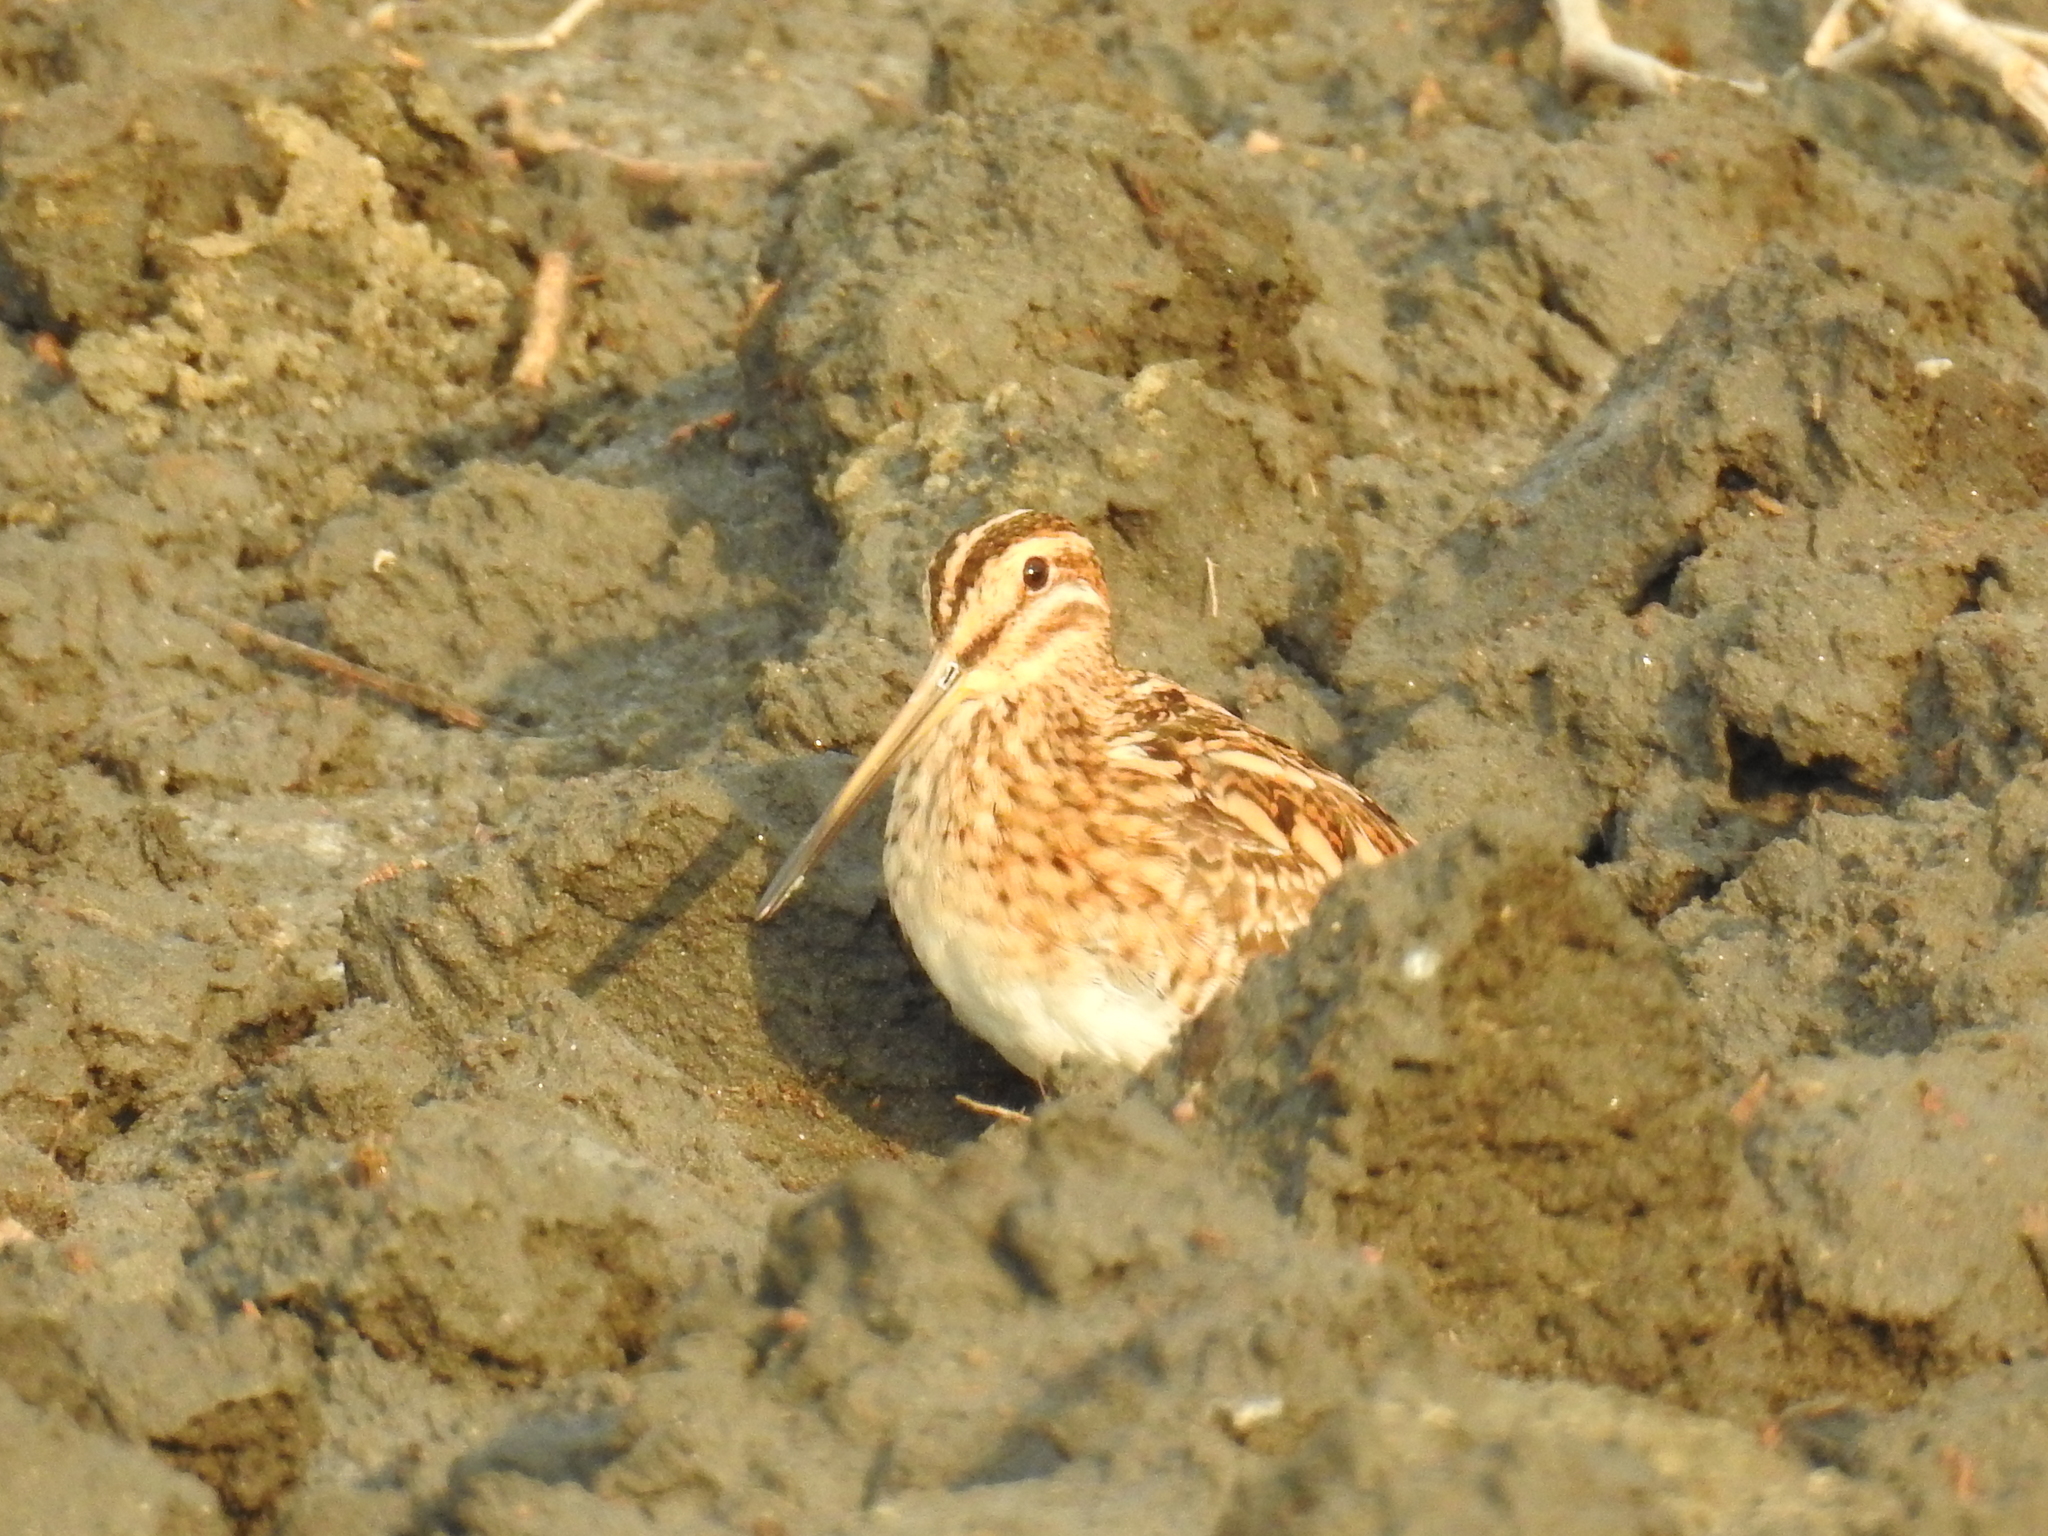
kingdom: Animalia
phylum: Chordata
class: Aves
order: Charadriiformes
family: Scolopacidae
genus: Gallinago
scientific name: Gallinago gallinago
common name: Common snipe
